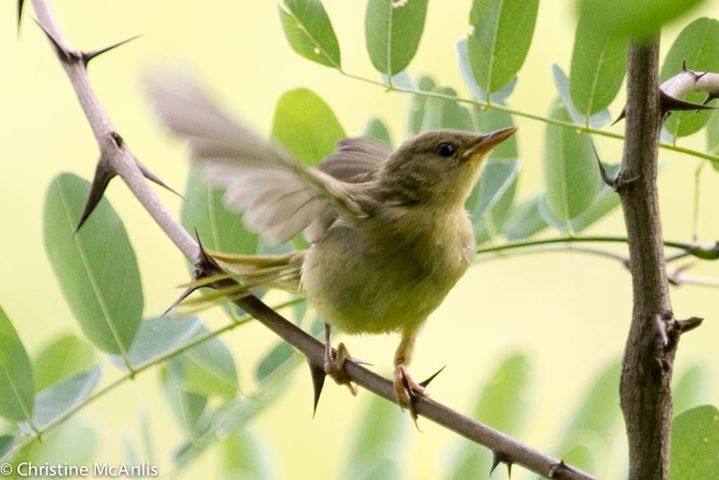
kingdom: Animalia
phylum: Chordata
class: Aves
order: Passeriformes
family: Parulidae
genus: Geothlypis
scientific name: Geothlypis trichas
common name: Common yellowthroat
